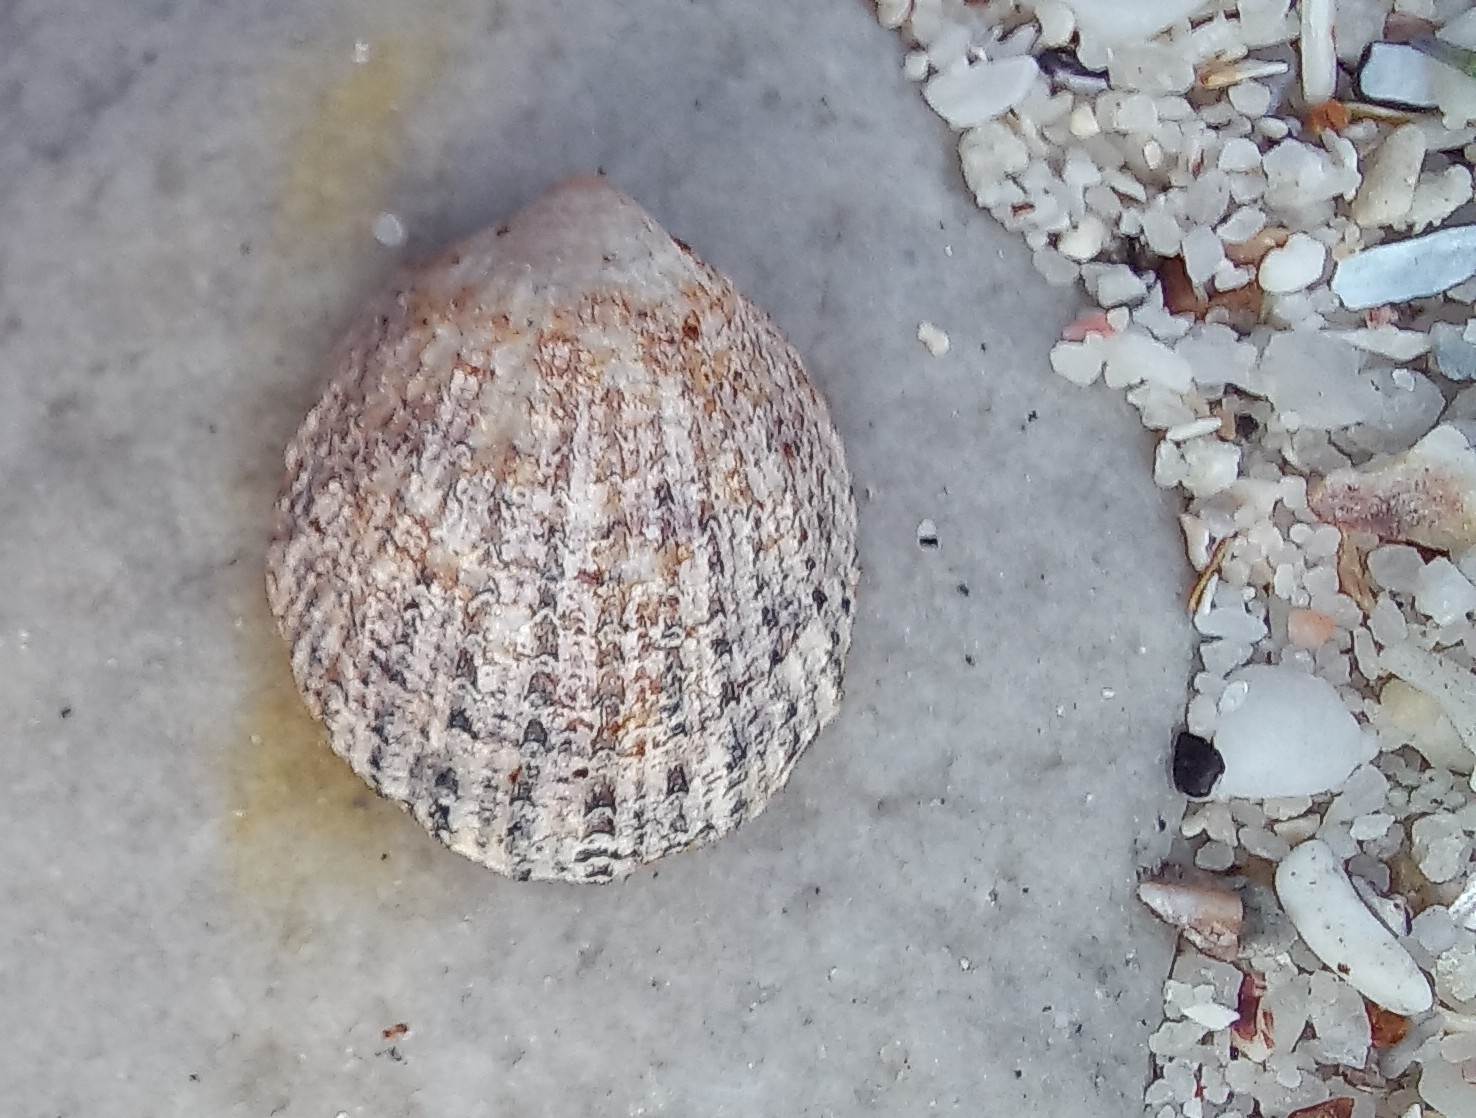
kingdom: Animalia
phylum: Mollusca
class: Gastropoda
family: Patellidae
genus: Helcion
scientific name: Helcion pectunculus
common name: Prickly limpet
